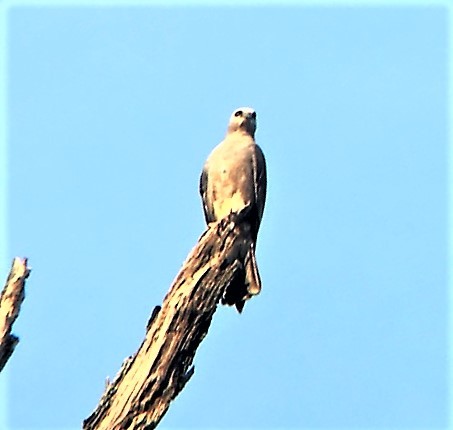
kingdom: Animalia
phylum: Chordata
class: Aves
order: Accipitriformes
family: Accipitridae
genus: Ictinia
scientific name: Ictinia mississippiensis
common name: Mississippi kite
